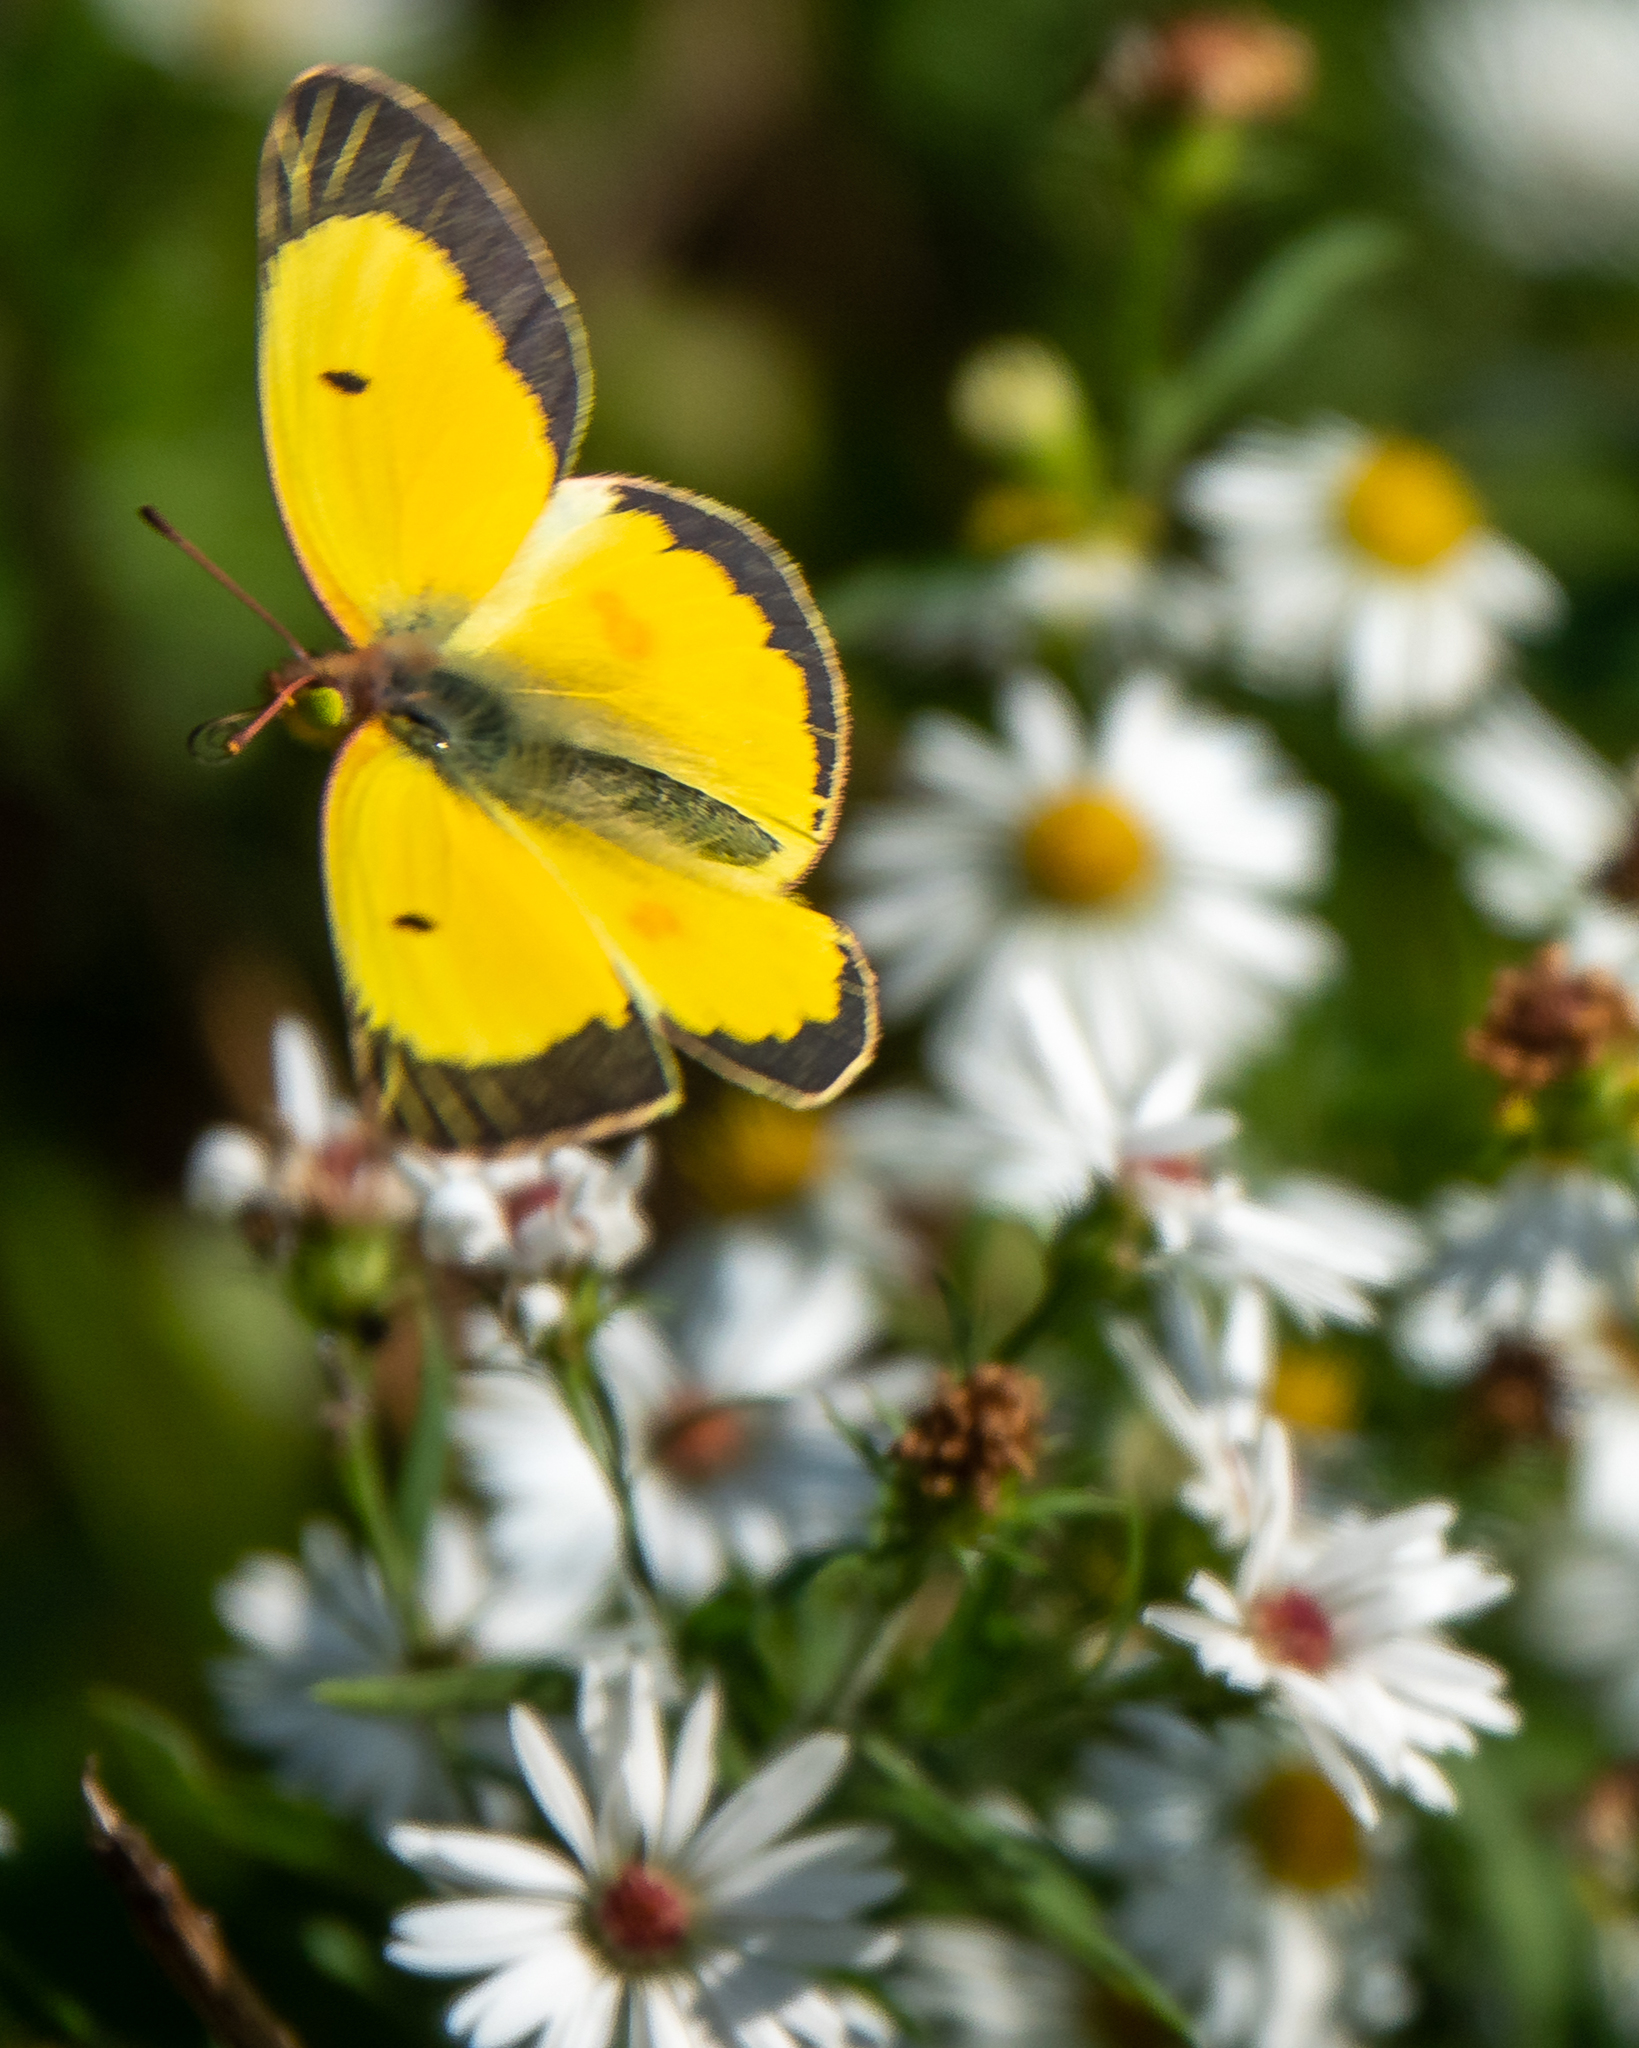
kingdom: Animalia
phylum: Arthropoda
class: Insecta
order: Lepidoptera
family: Pieridae
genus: Colias
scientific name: Colias eurytheme
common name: Alfalfa butterfly
